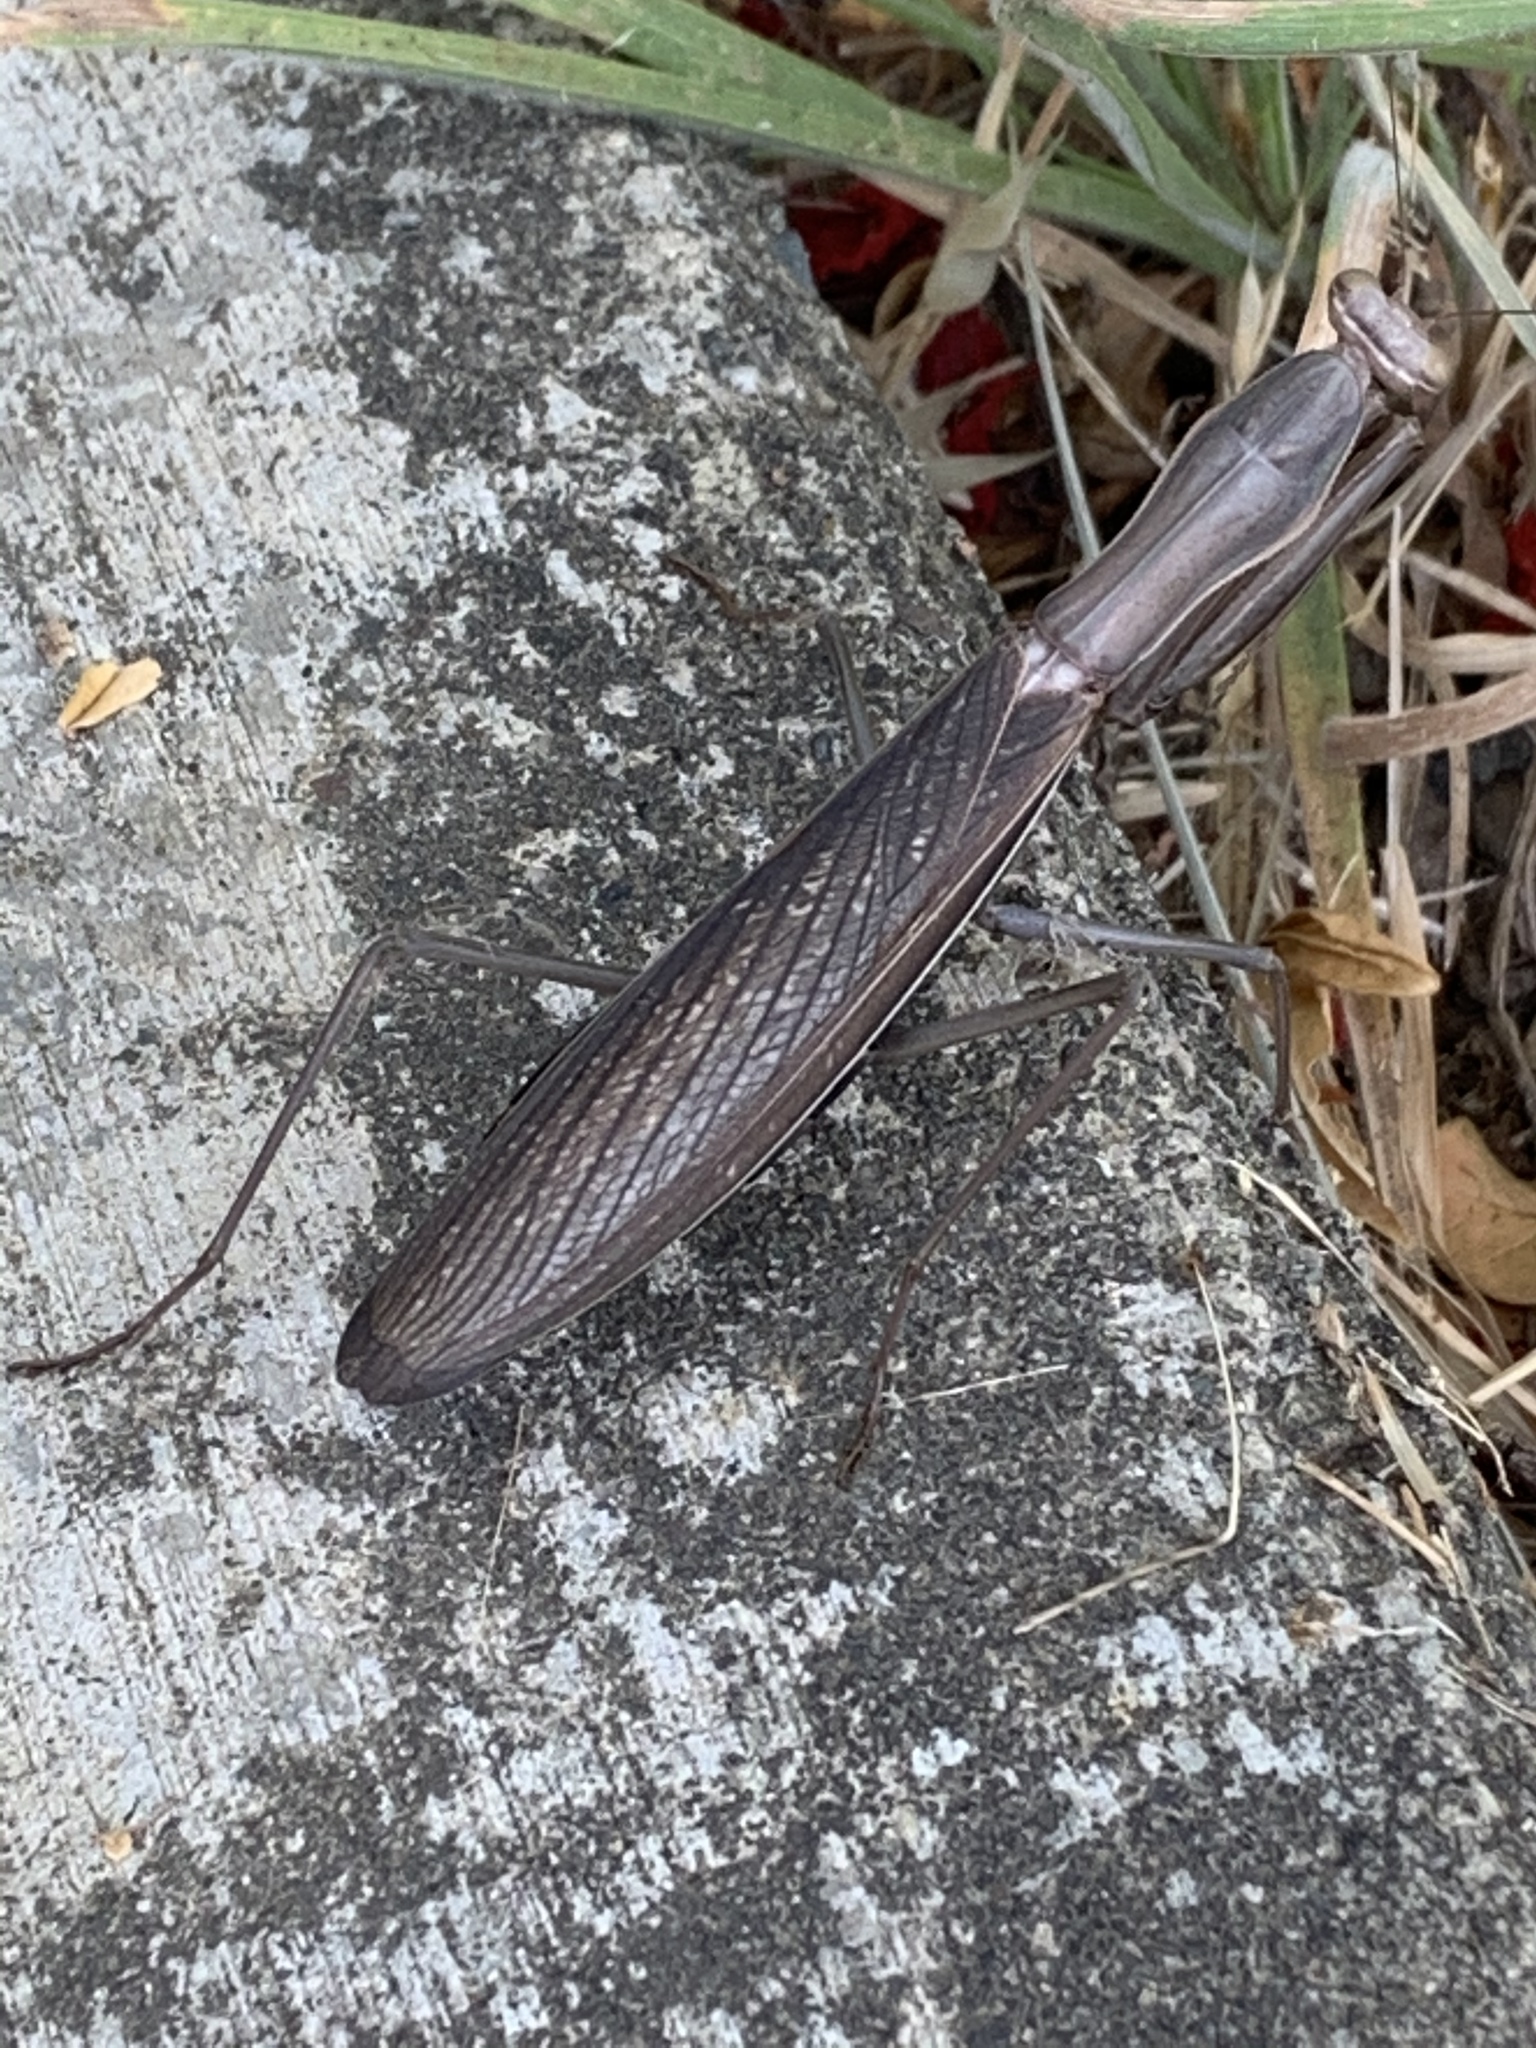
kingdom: Animalia
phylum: Arthropoda
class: Insecta
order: Mantodea
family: Mantidae
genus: Mantis
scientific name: Mantis religiosa
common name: Praying mantis
